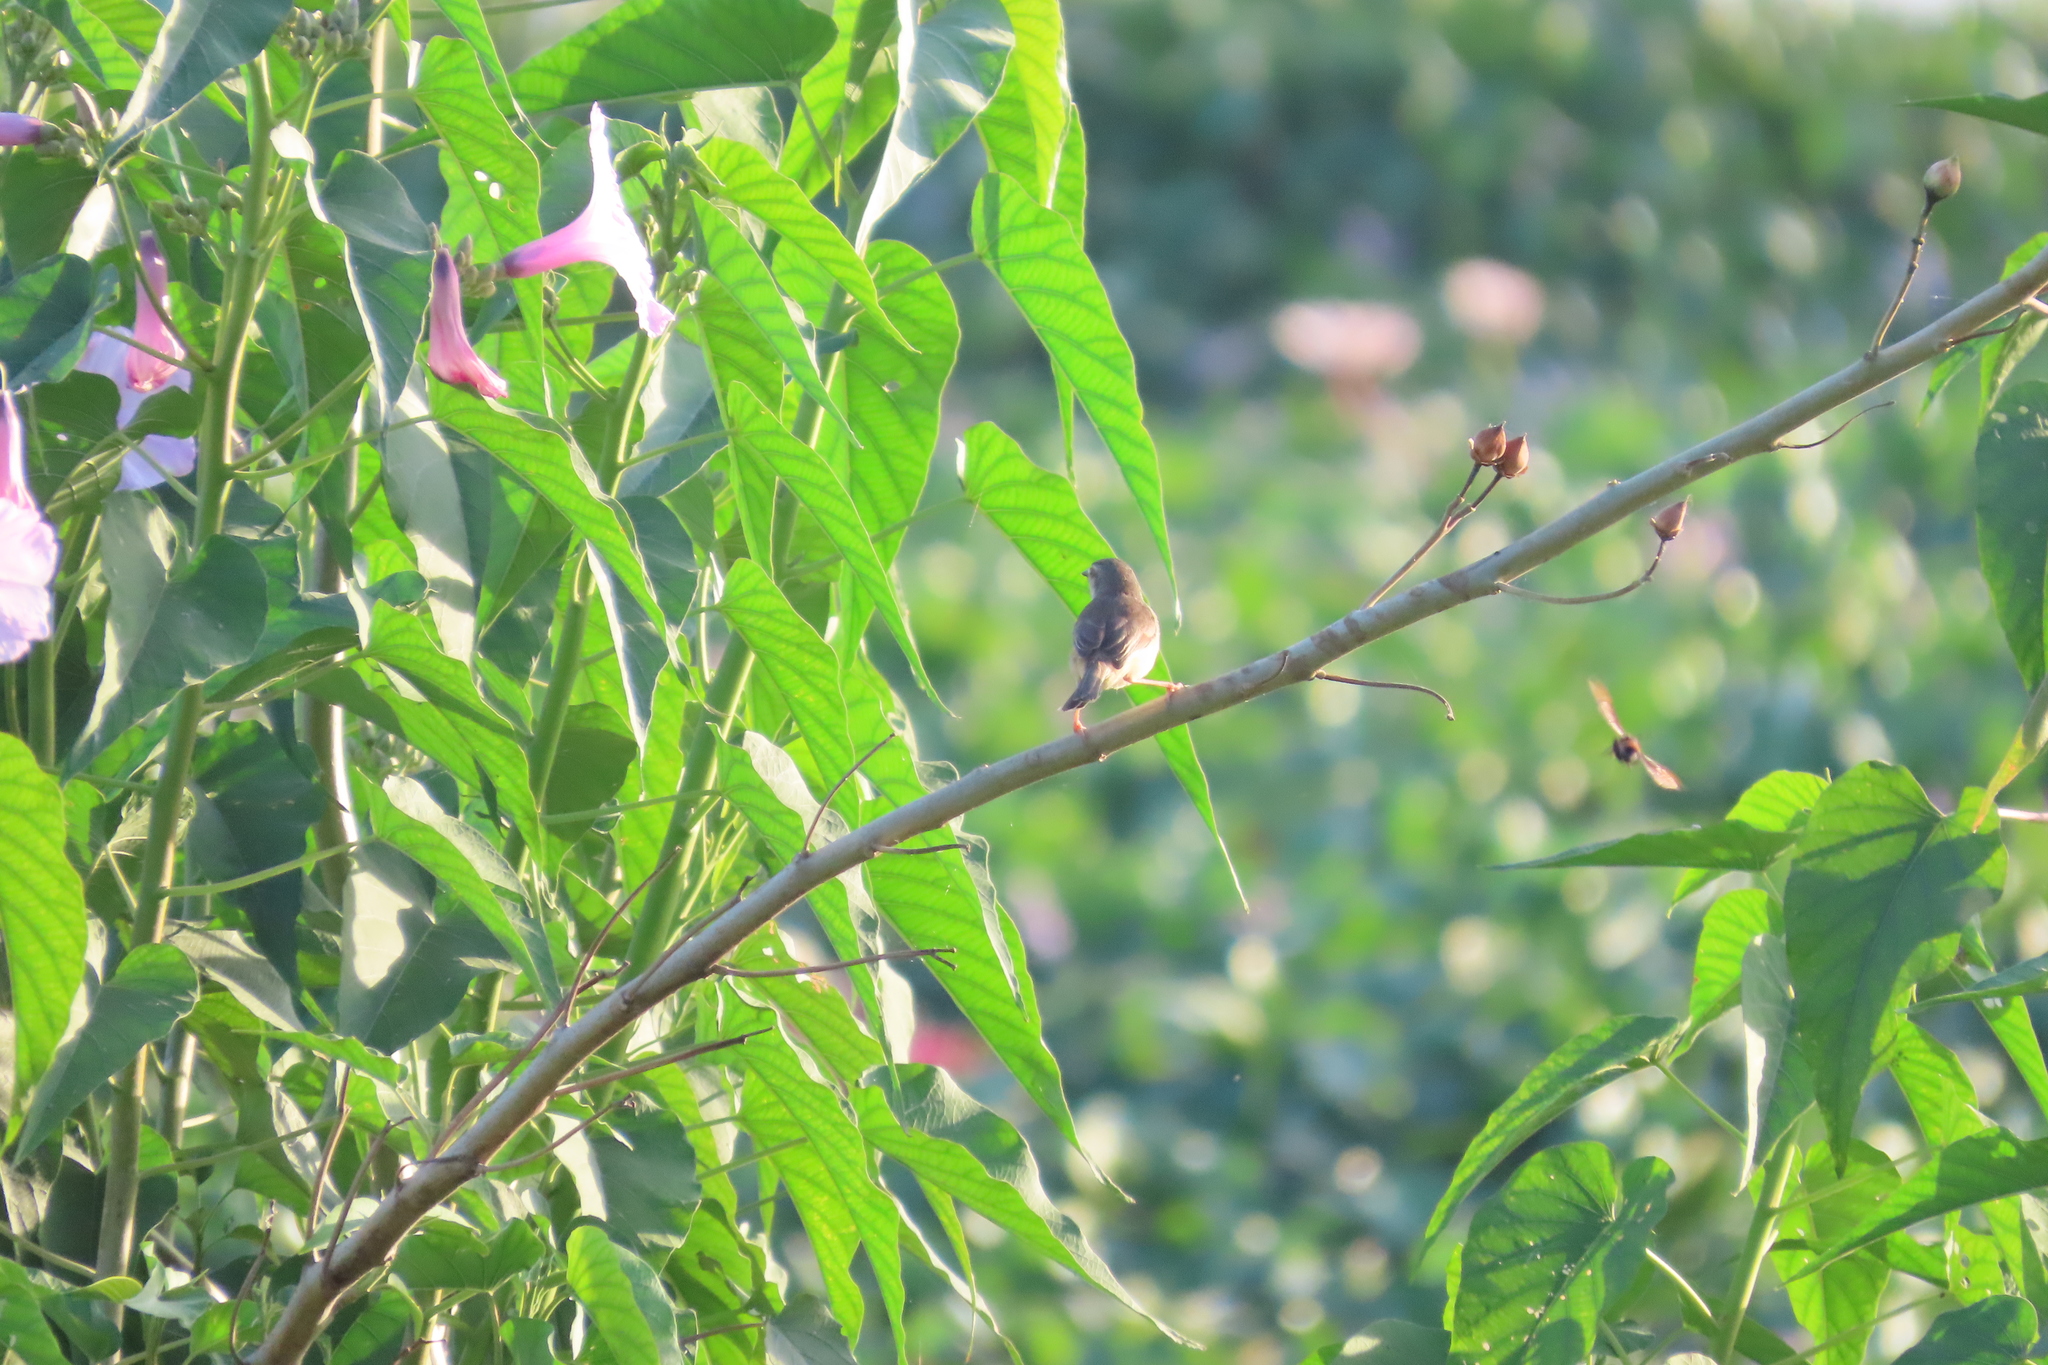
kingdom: Animalia
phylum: Chordata
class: Aves
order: Passeriformes
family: Cisticolidae
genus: Prinia
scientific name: Prinia inornata
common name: Plain prinia
